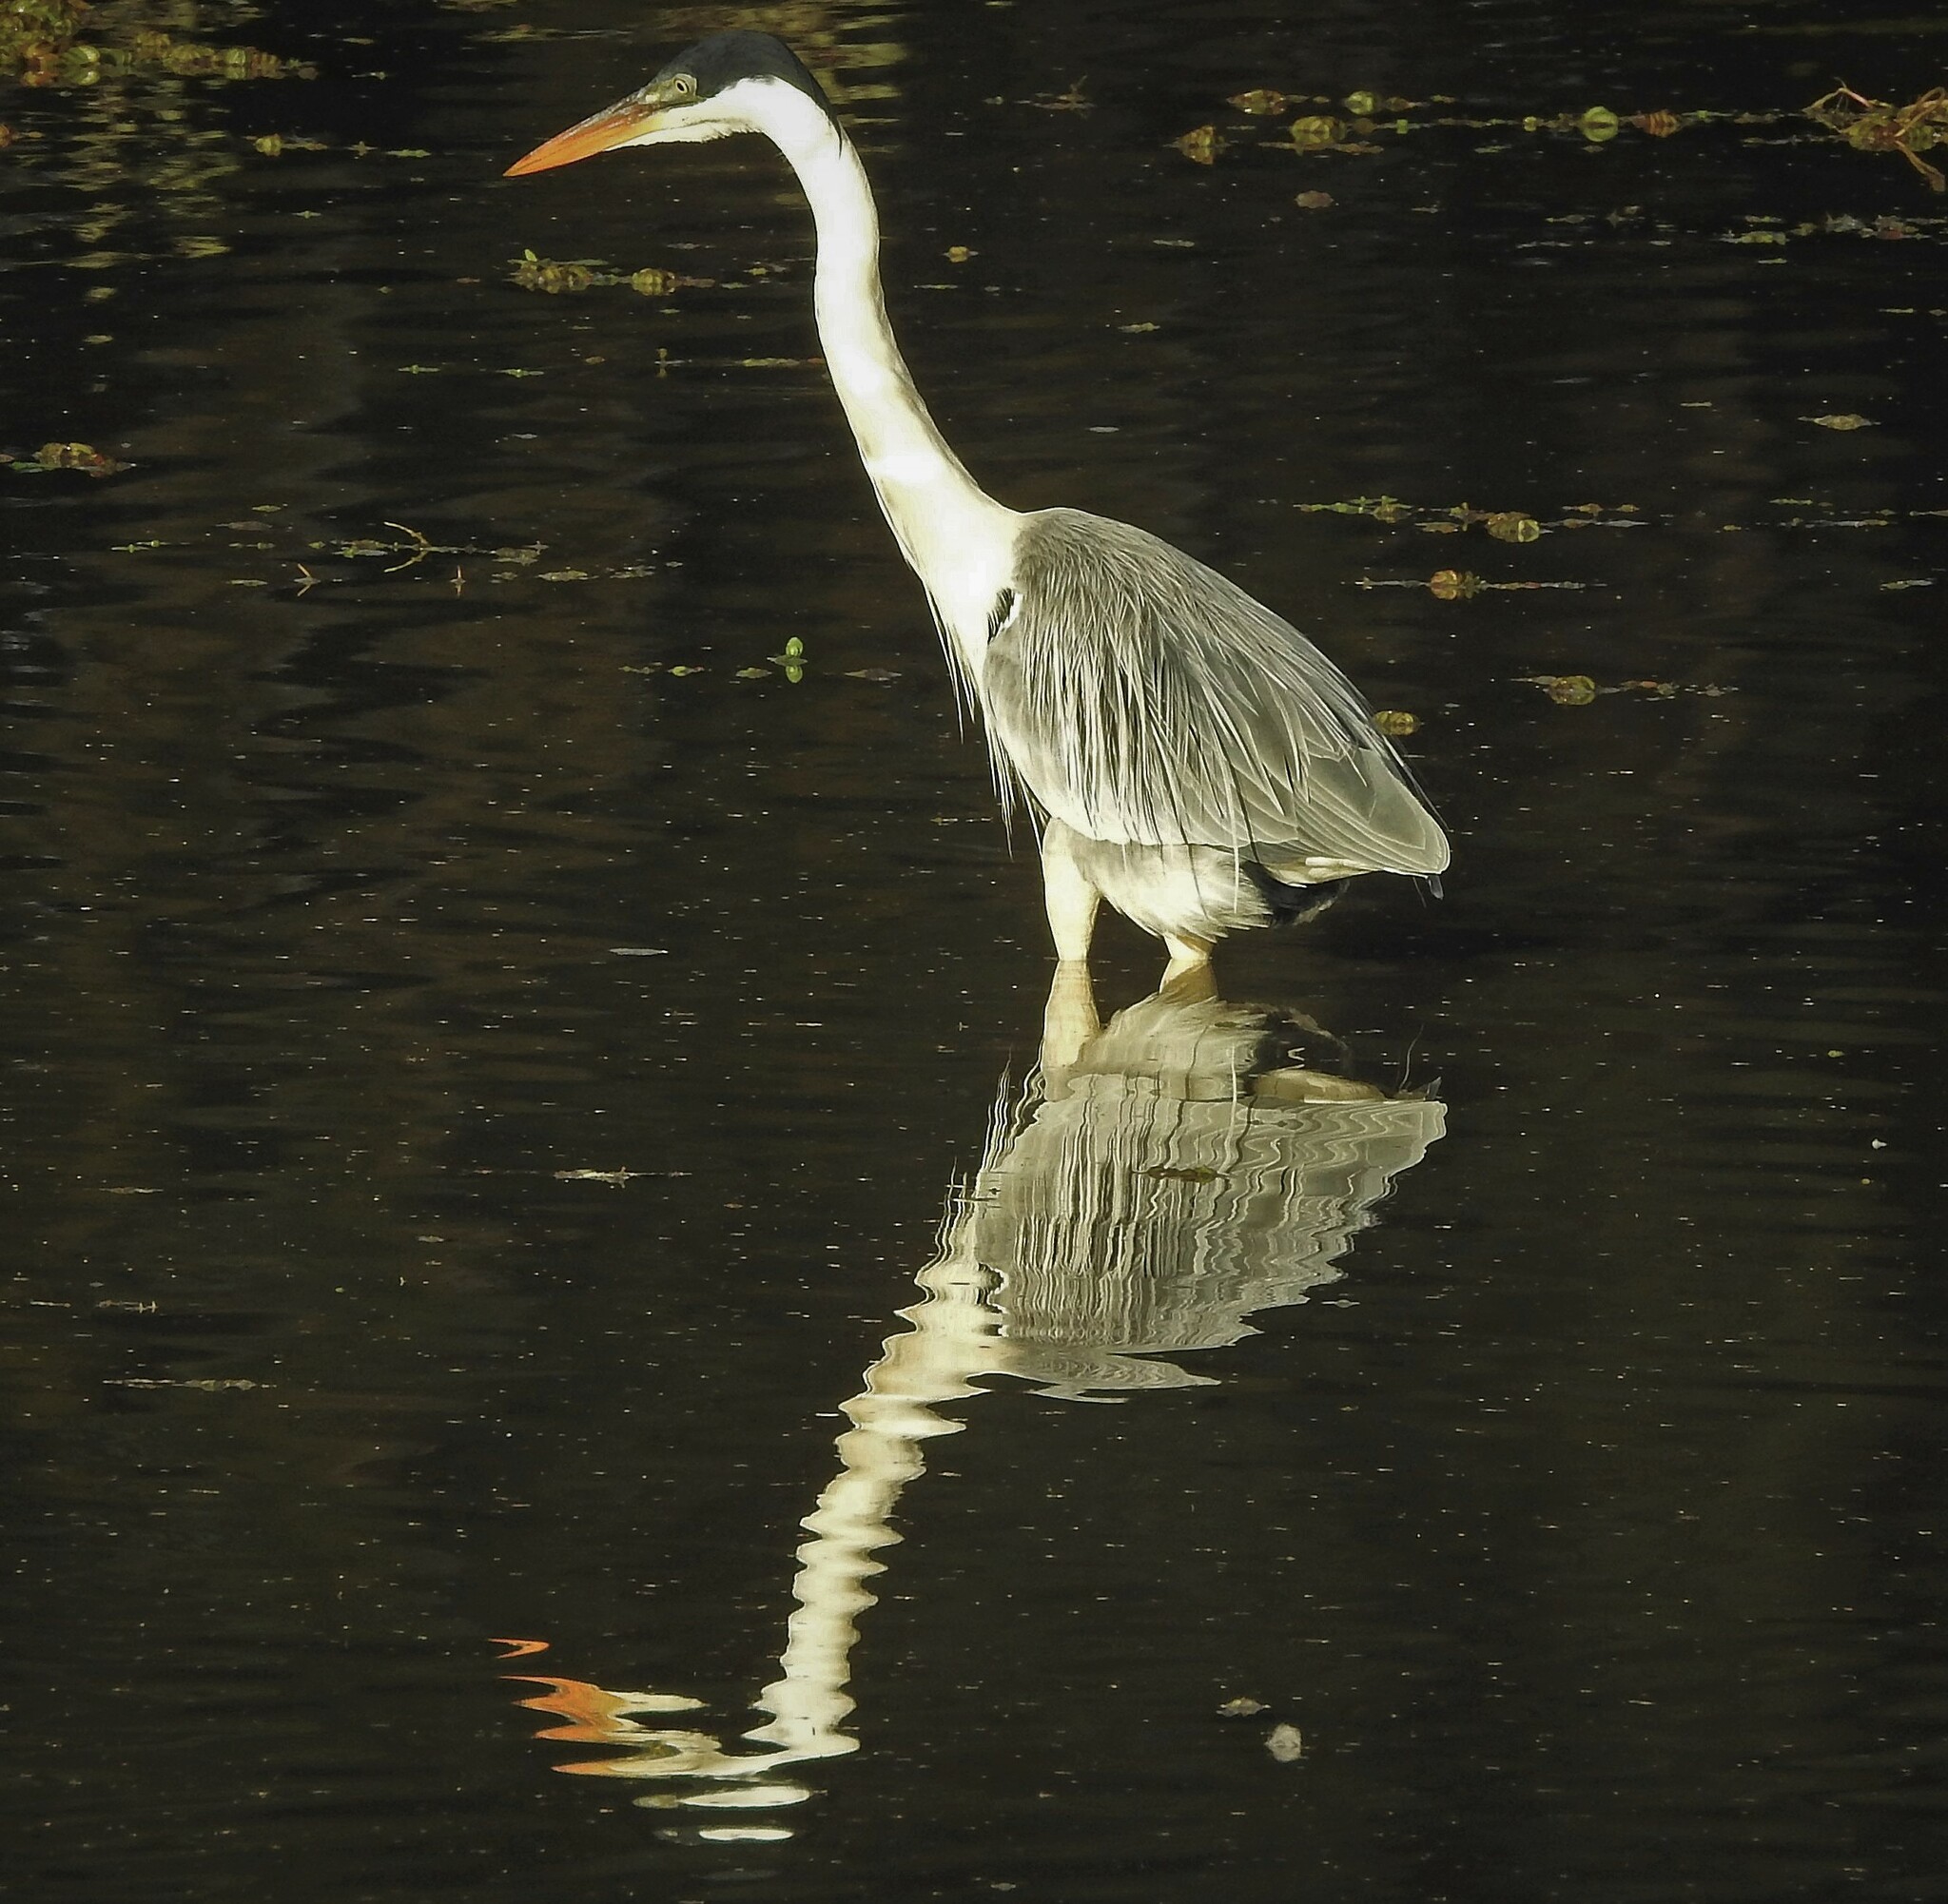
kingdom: Animalia
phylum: Chordata
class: Aves
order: Pelecaniformes
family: Ardeidae
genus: Ardea
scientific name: Ardea cocoi
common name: Cocoi heron
